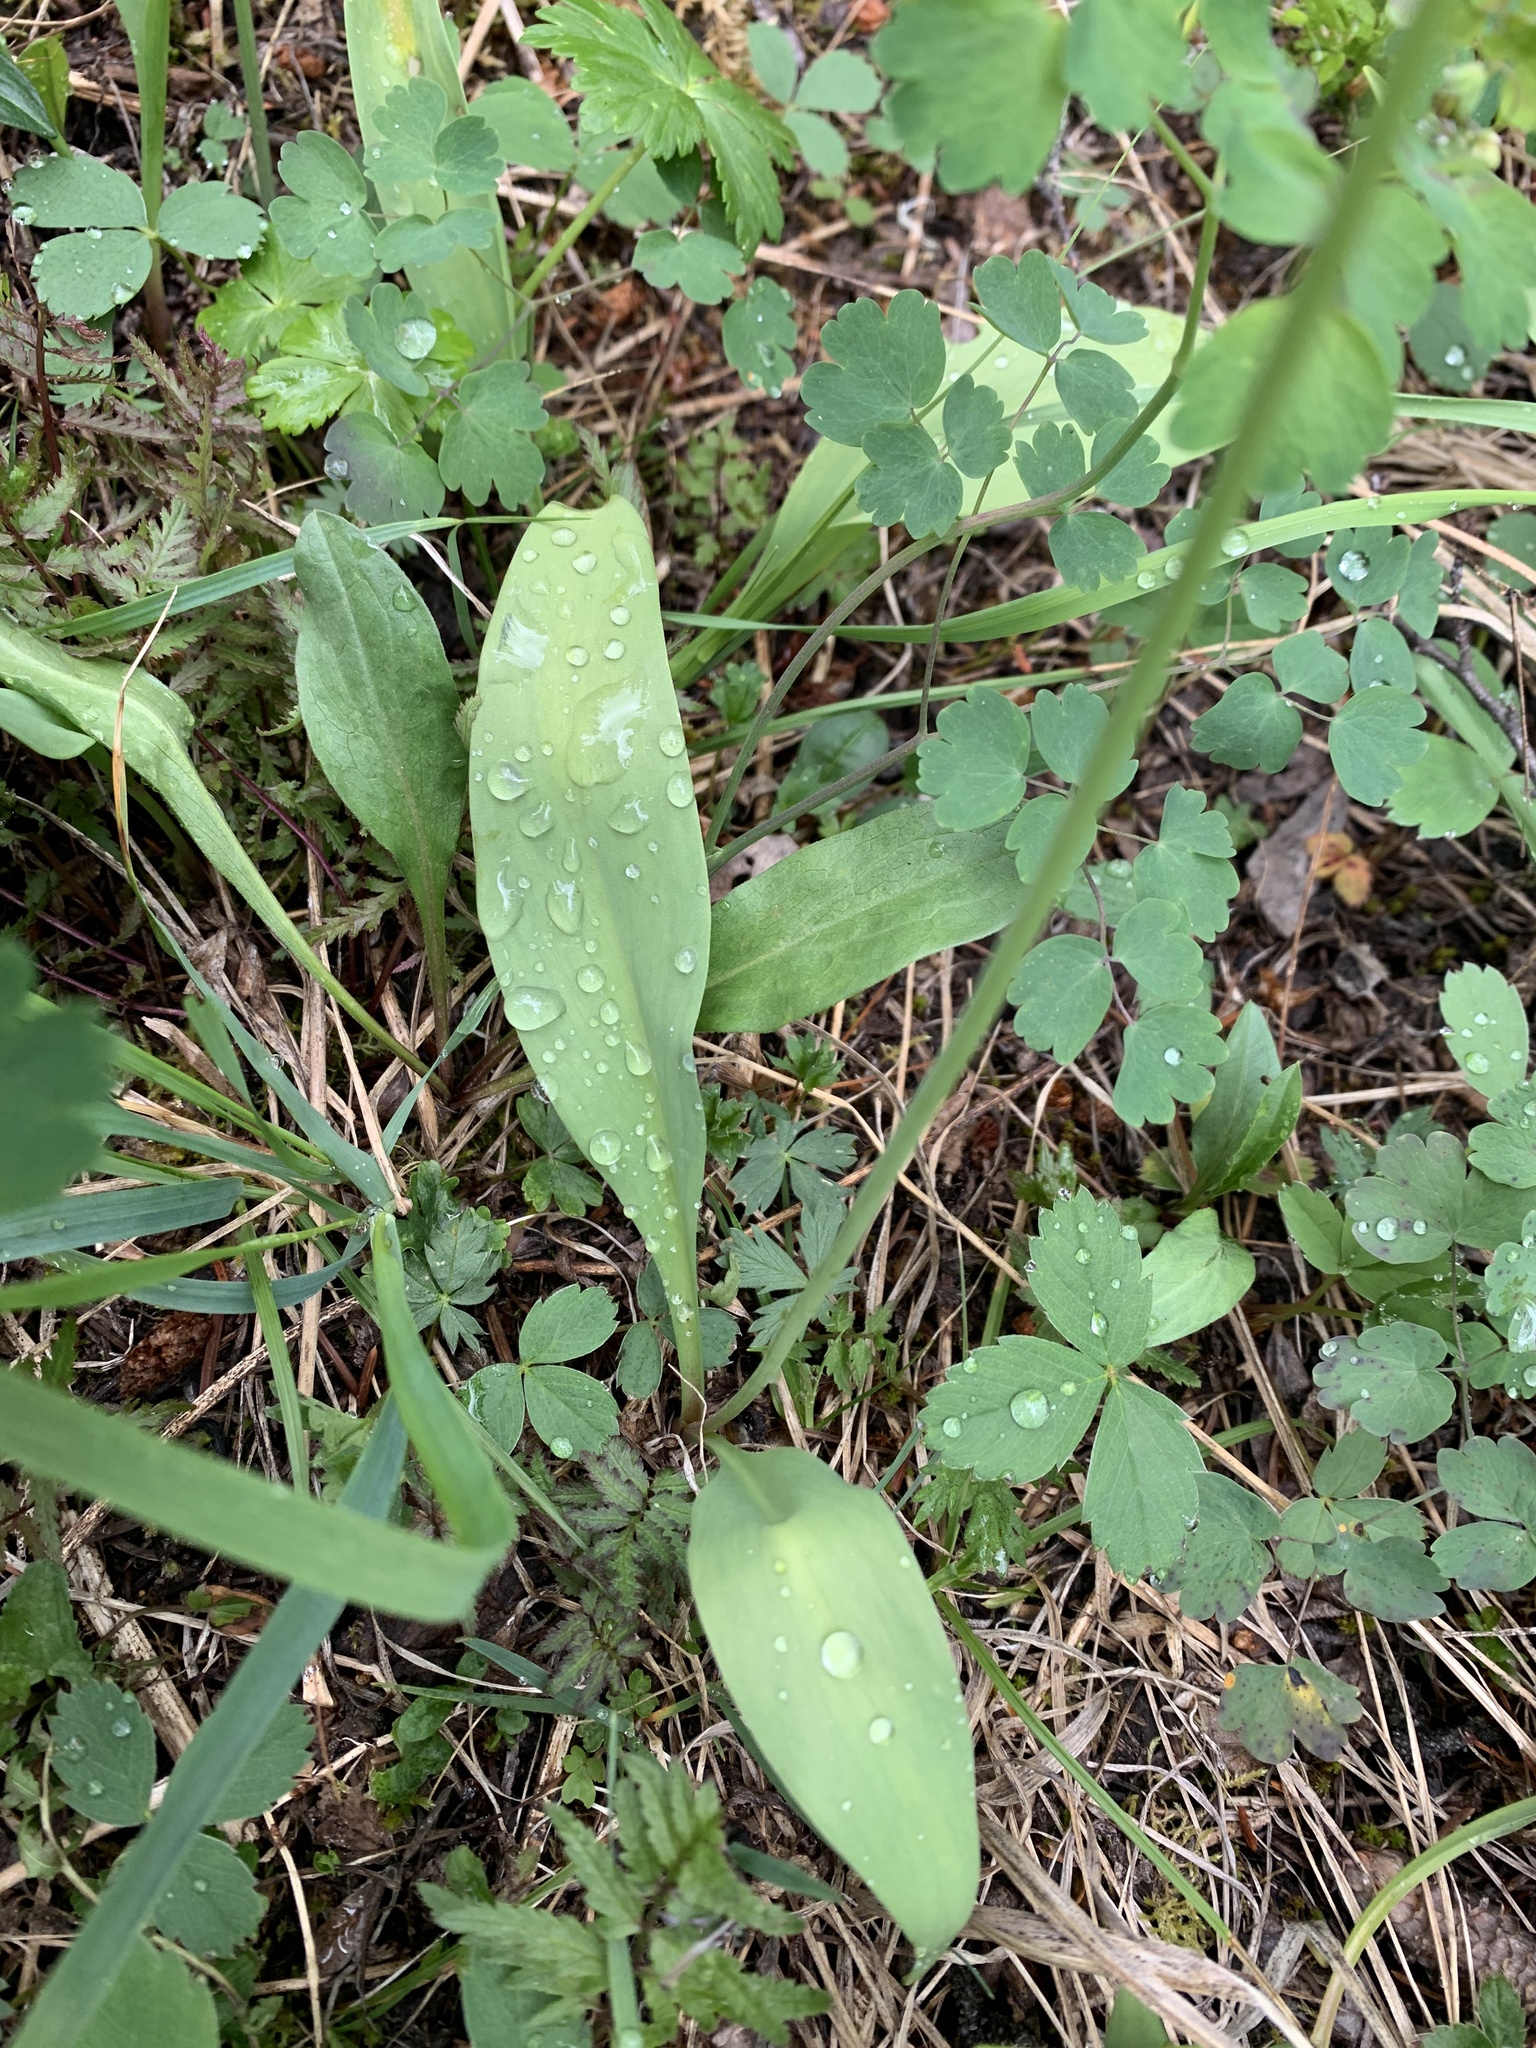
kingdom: Plantae
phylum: Tracheophyta
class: Liliopsida
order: Liliales
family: Liliaceae
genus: Erythronium
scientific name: Erythronium grandiflorum
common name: Avalanche-lily
